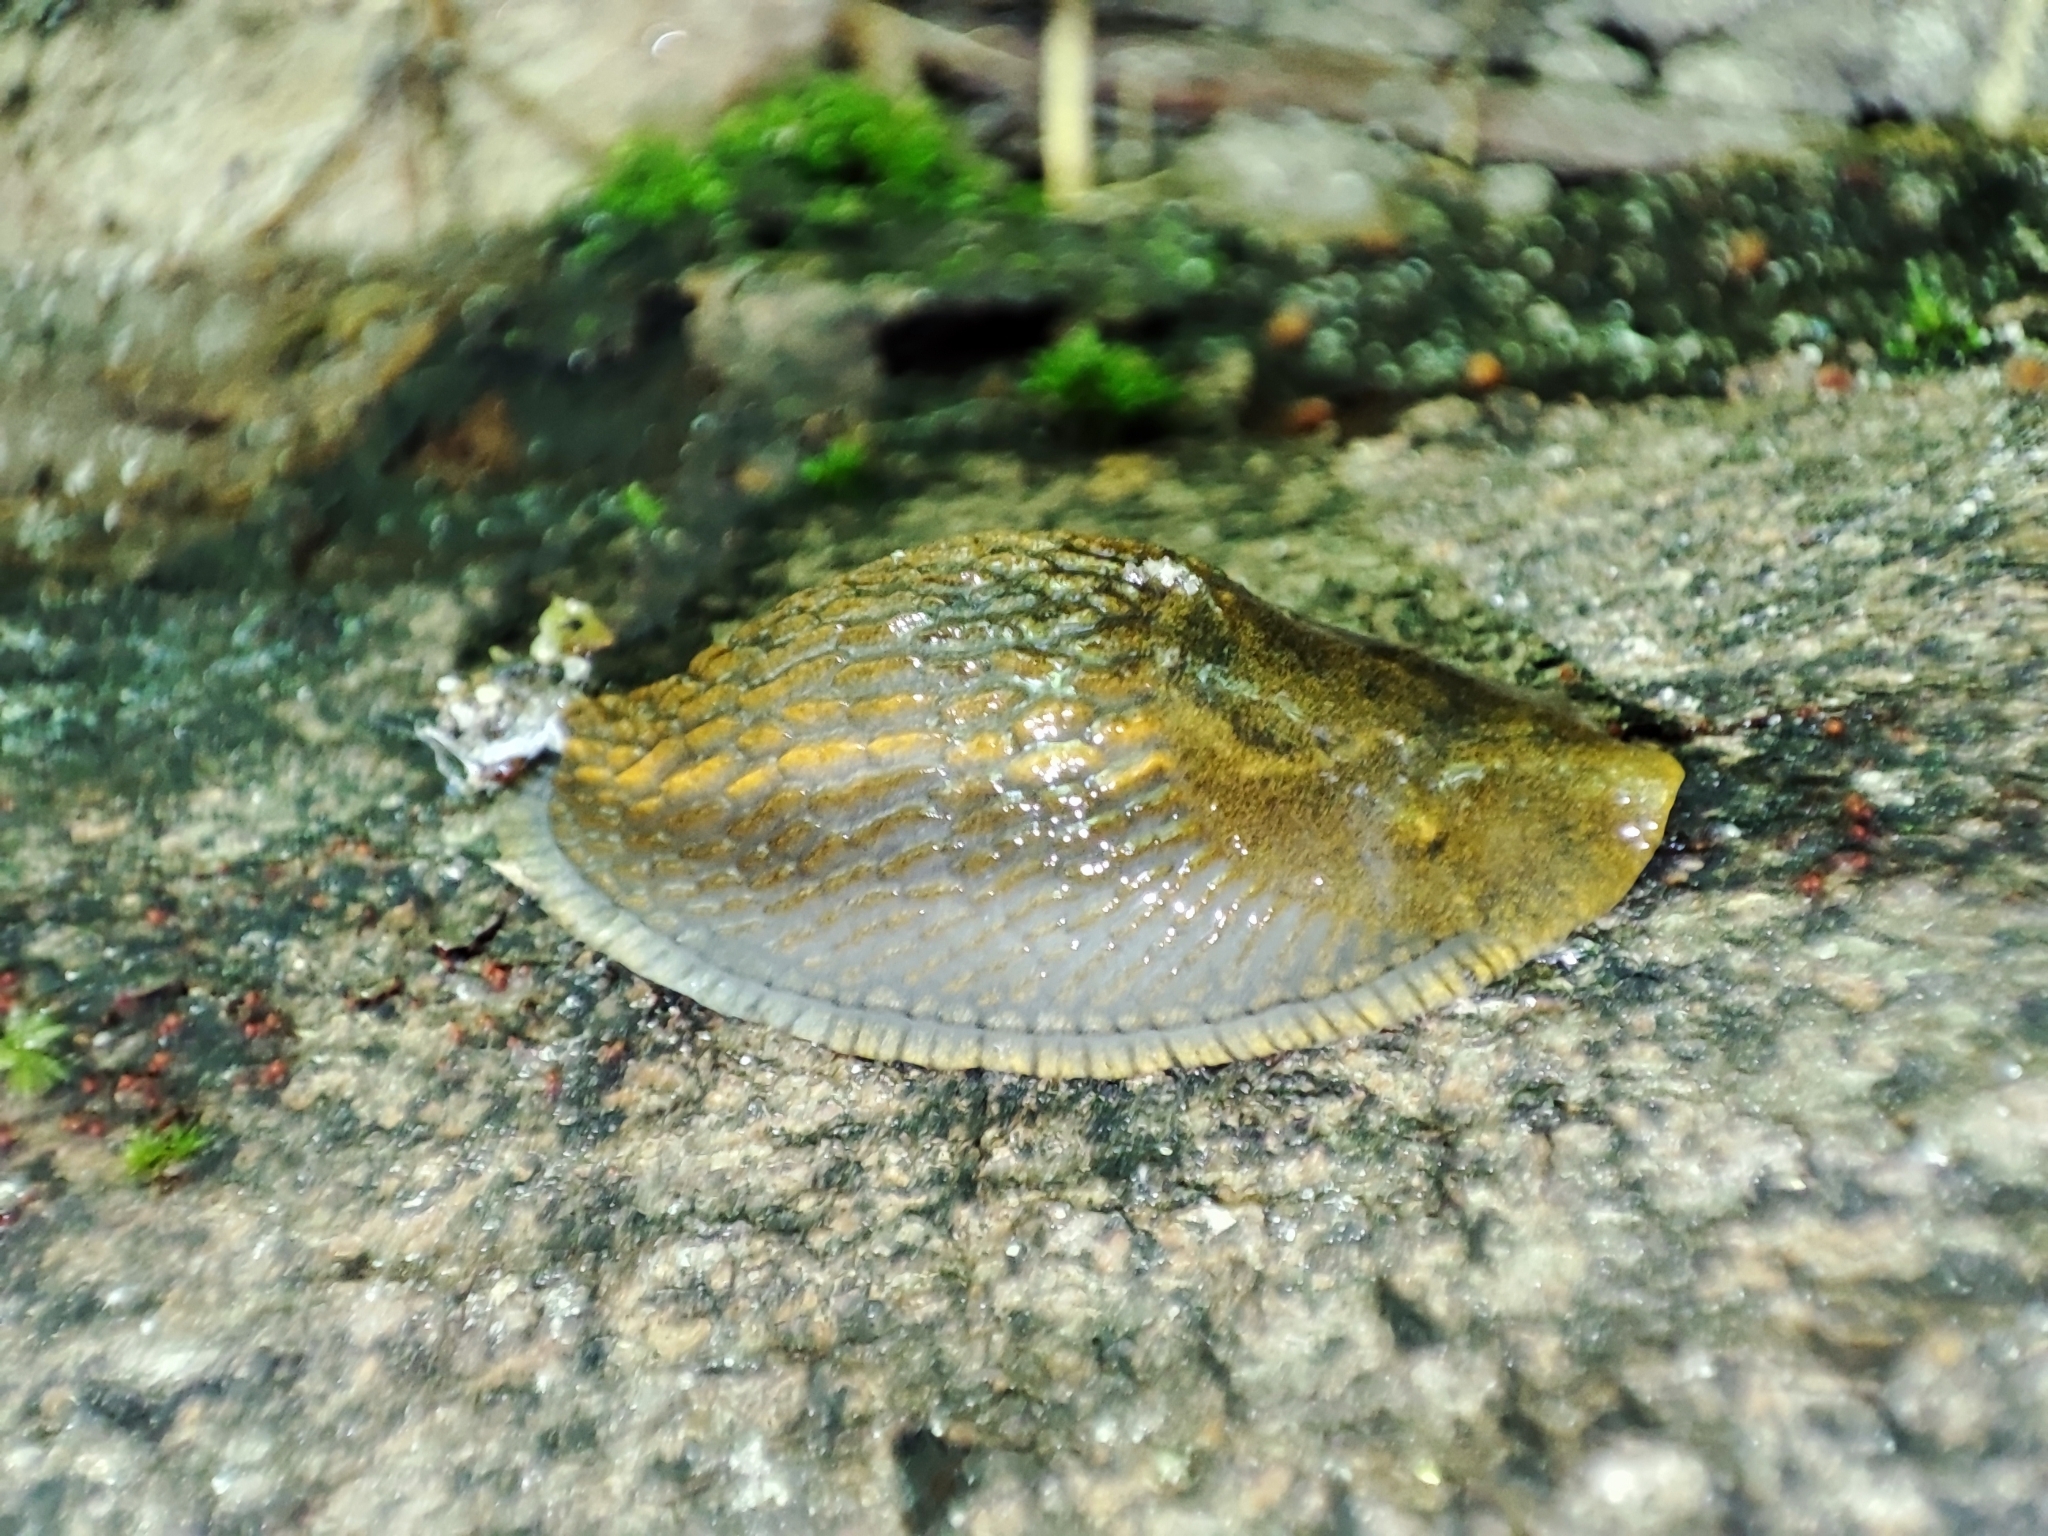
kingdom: Animalia
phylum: Mollusca
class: Gastropoda
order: Stylommatophora
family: Arionidae
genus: Arion
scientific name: Arion vulgaris
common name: Lusitanian slug
